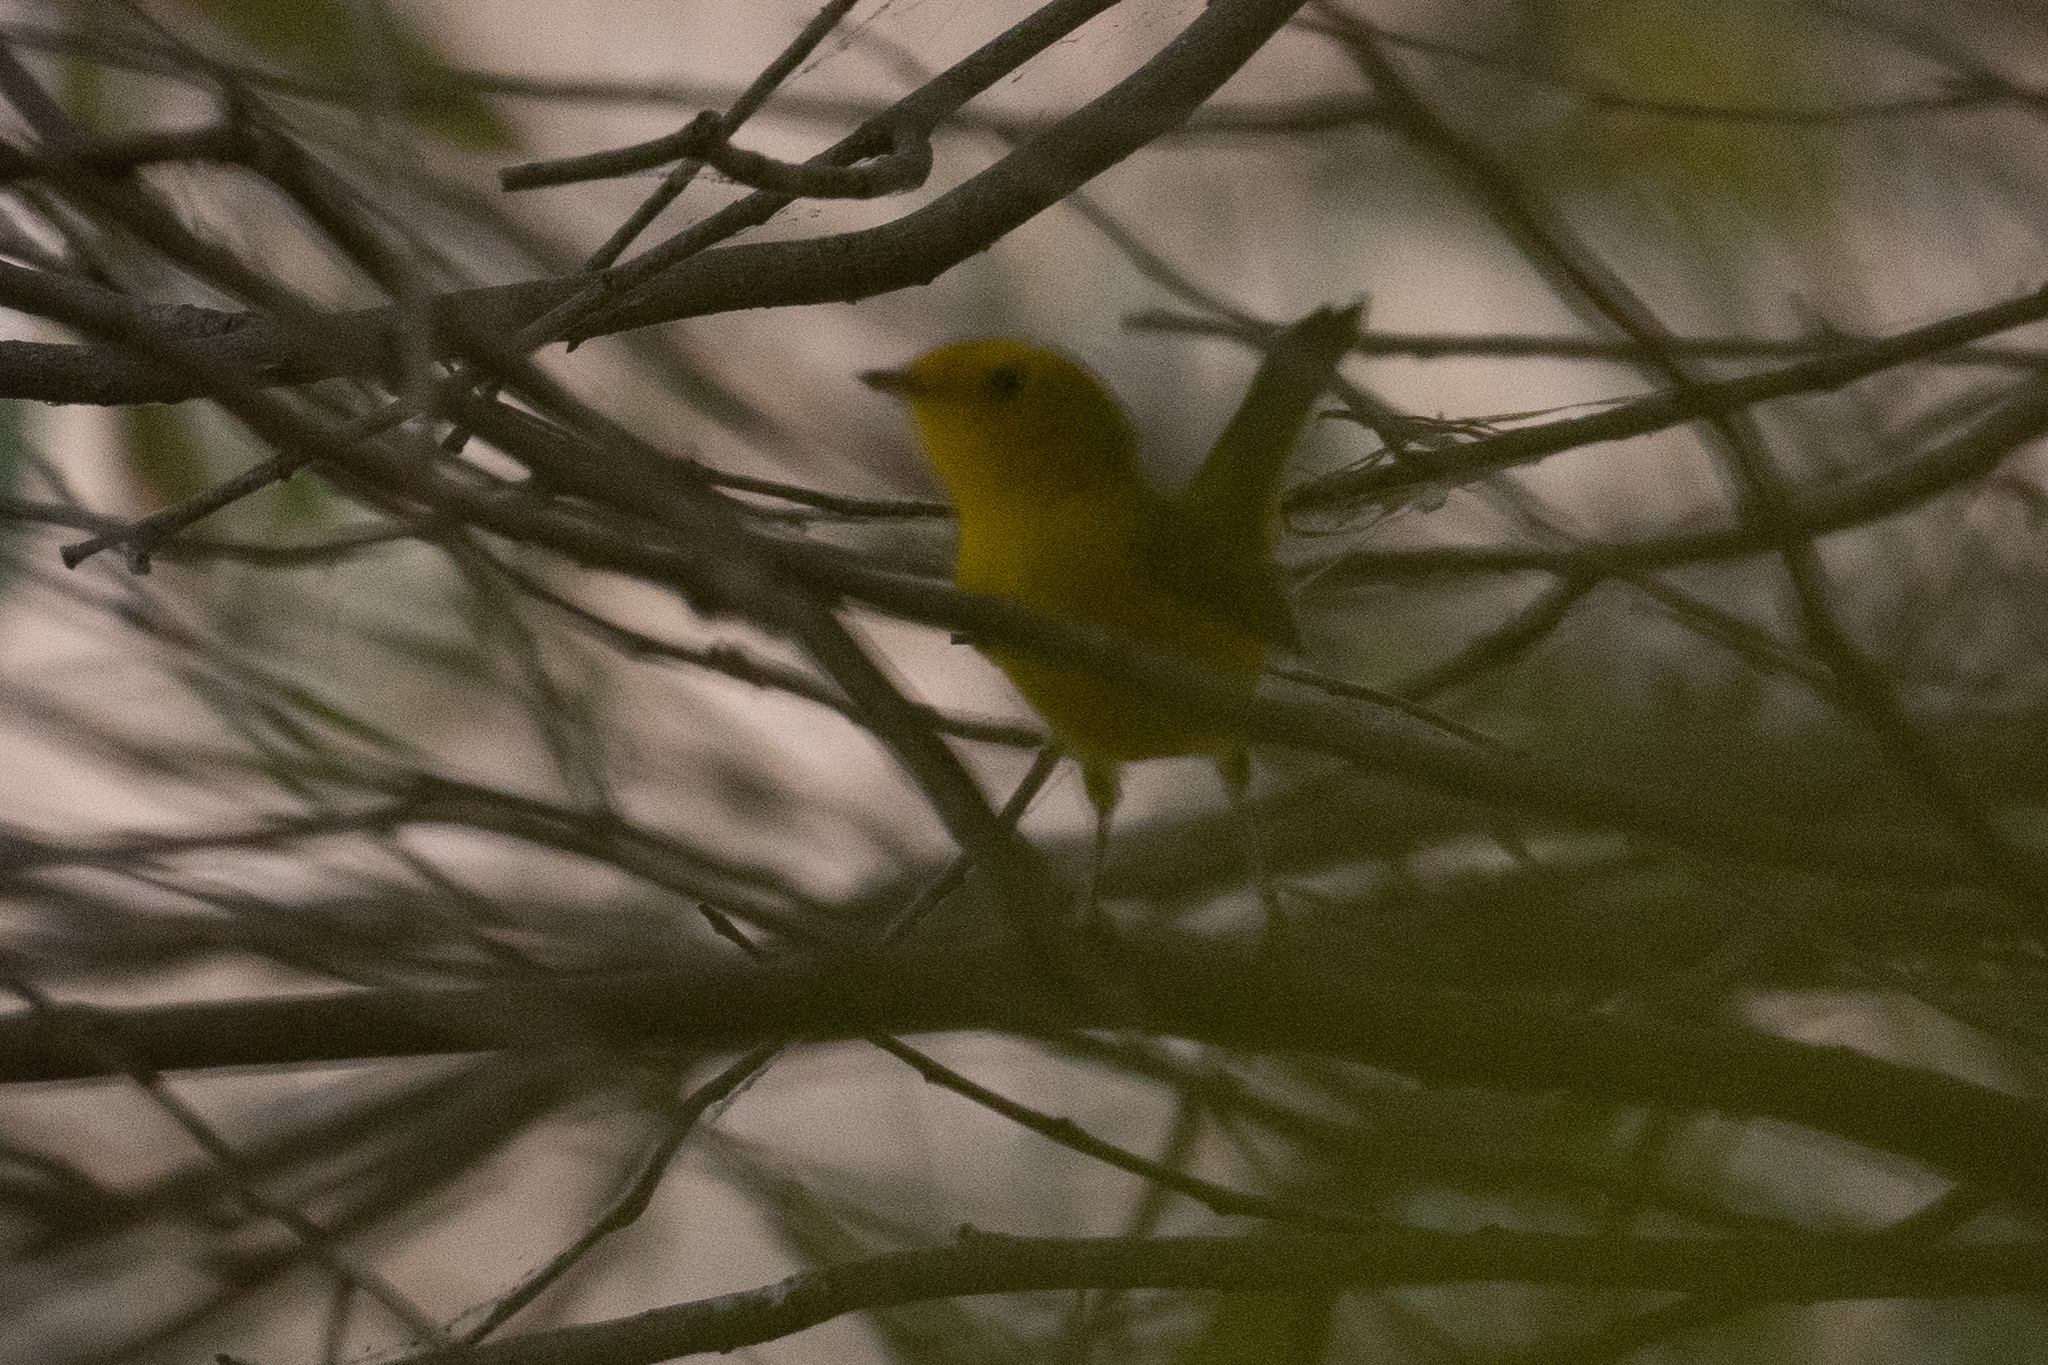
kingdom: Animalia
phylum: Chordata
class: Aves
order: Passeriformes
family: Parulidae
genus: Cardellina
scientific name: Cardellina pusilla
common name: Wilson's warbler
